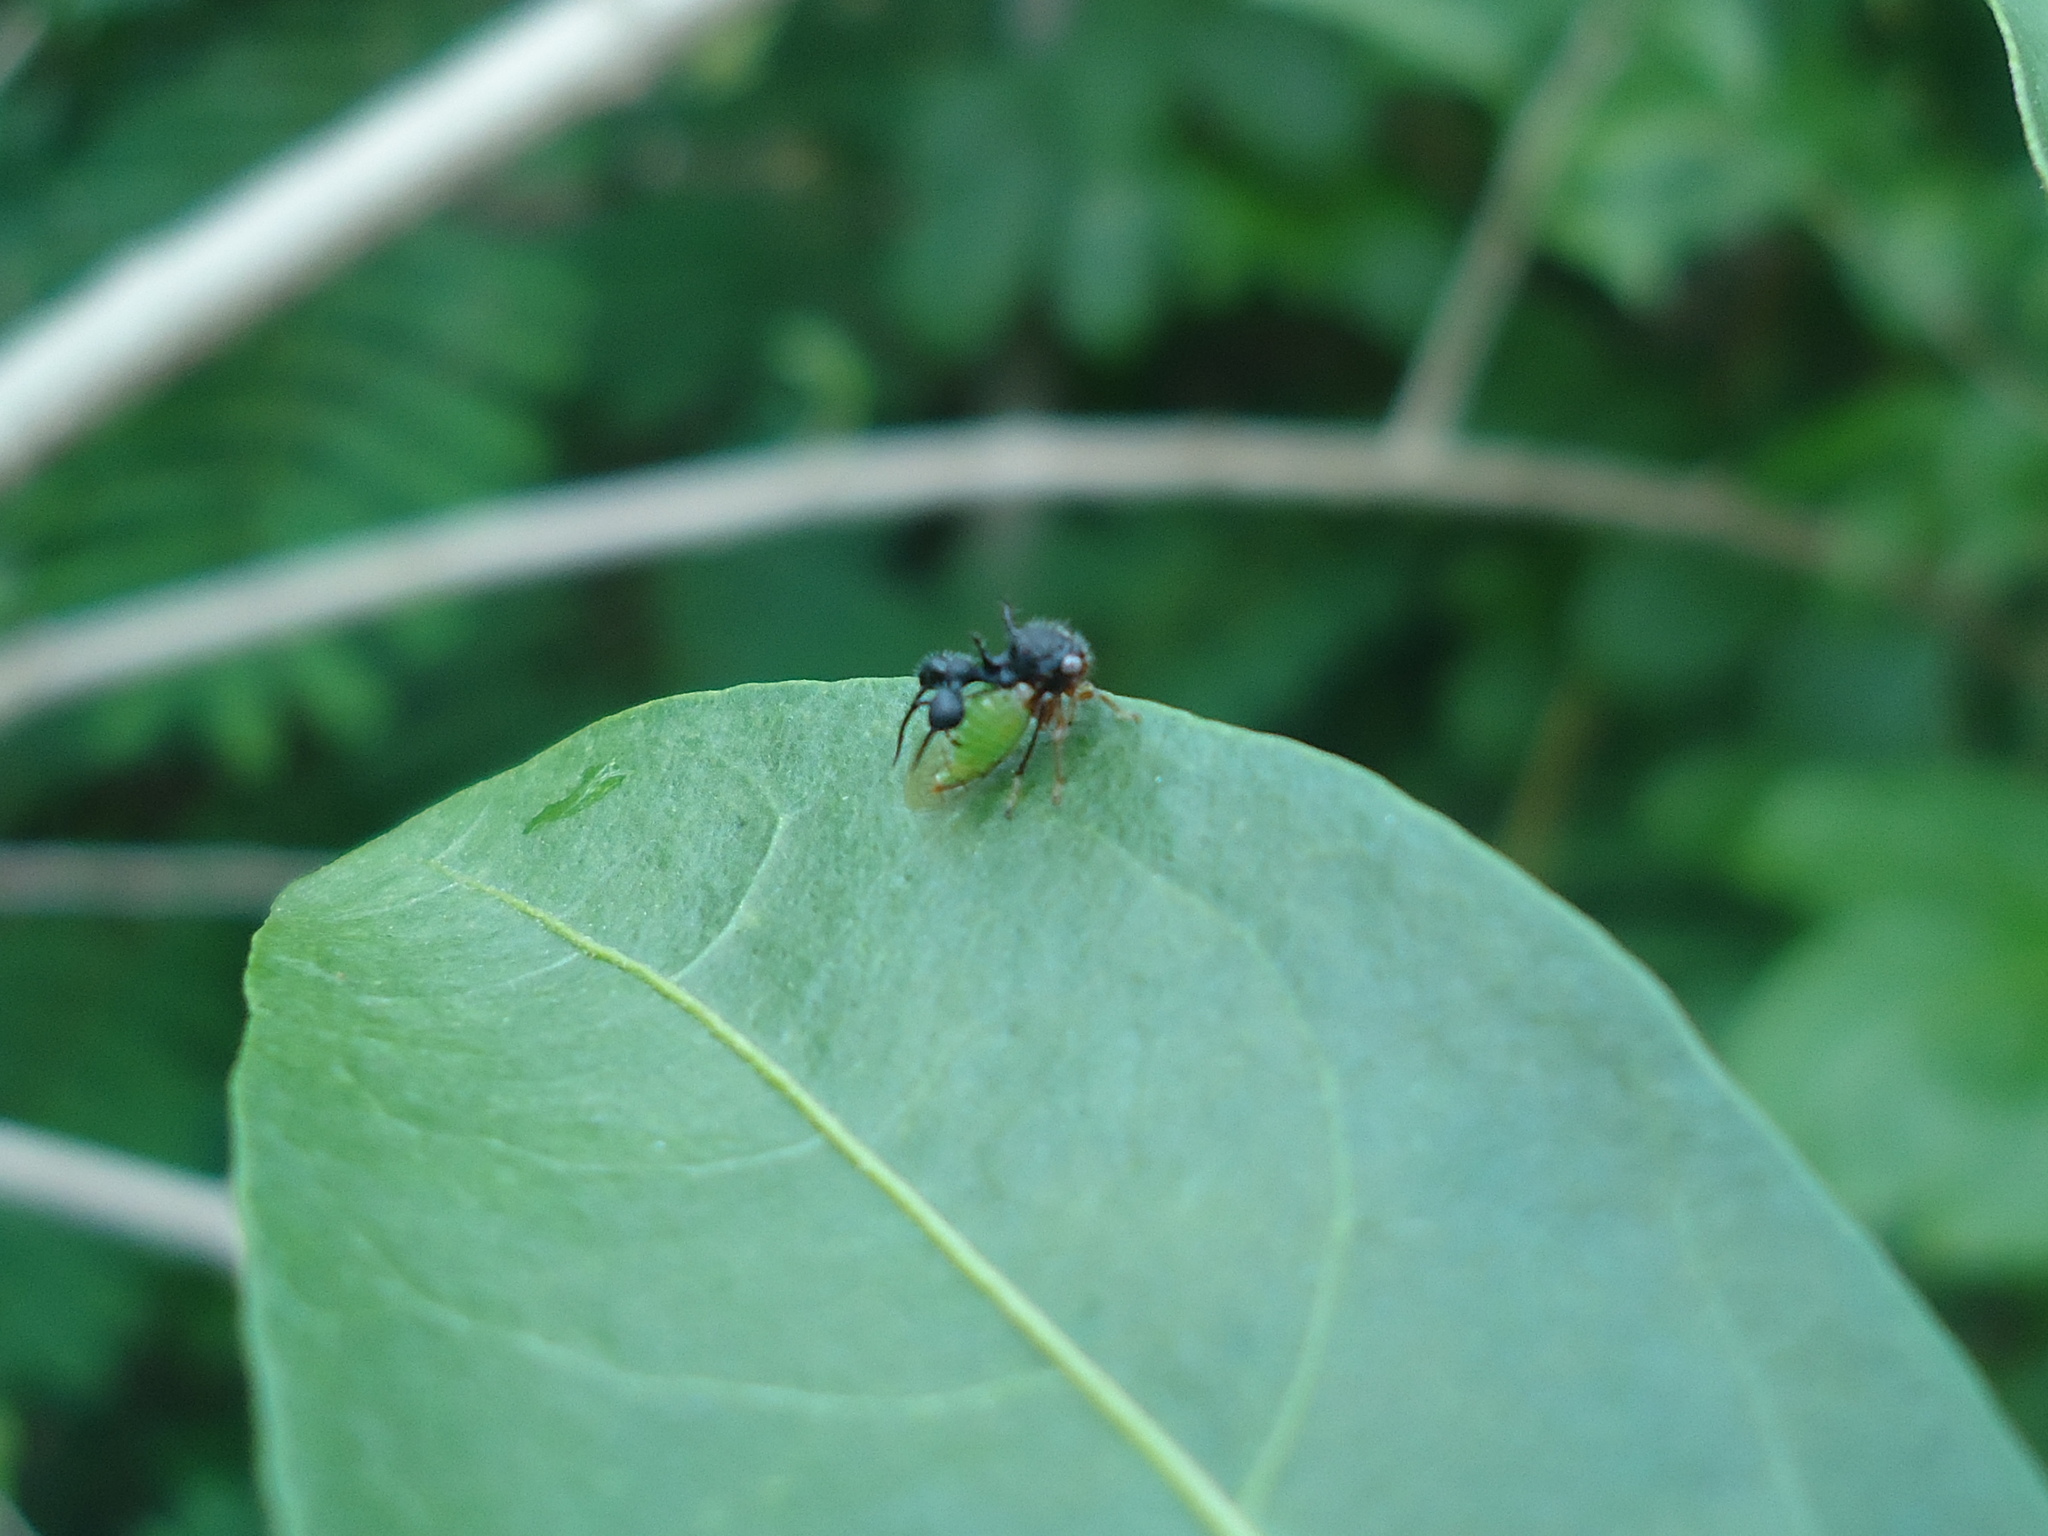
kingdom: Animalia
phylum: Arthropoda
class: Insecta
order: Hemiptera
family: Membracidae
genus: Cyphonia
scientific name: Cyphonia clavata
